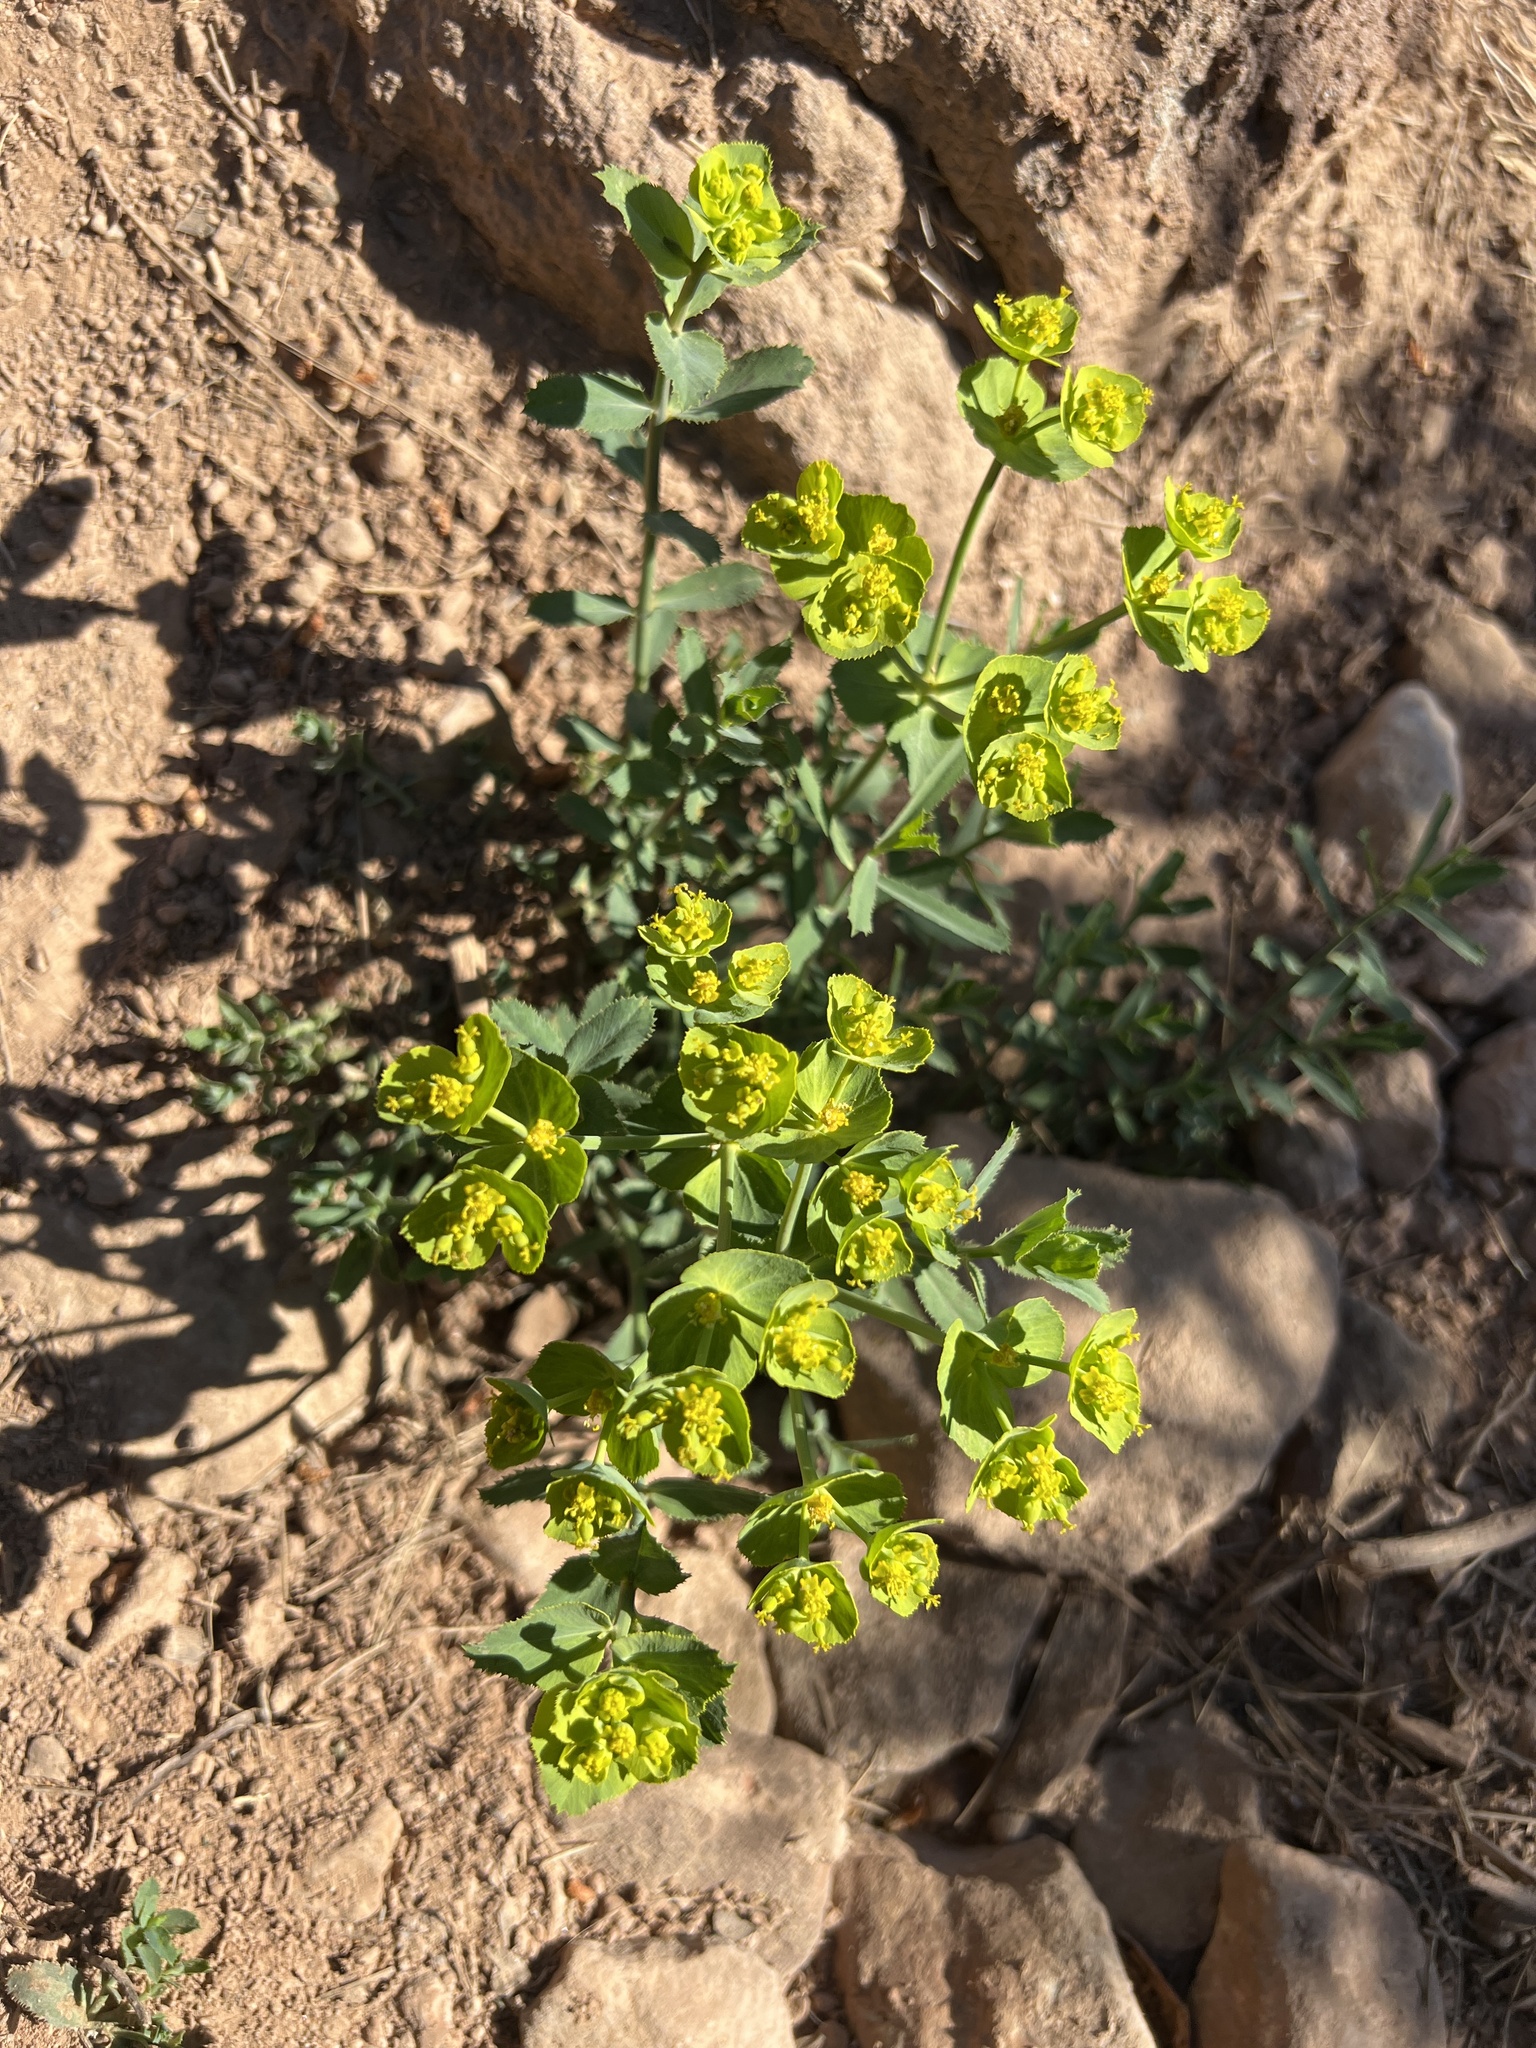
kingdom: Plantae
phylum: Tracheophyta
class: Magnoliopsida
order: Malpighiales
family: Euphorbiaceae
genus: Euphorbia
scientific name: Euphorbia serrata
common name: Serrate spurge
